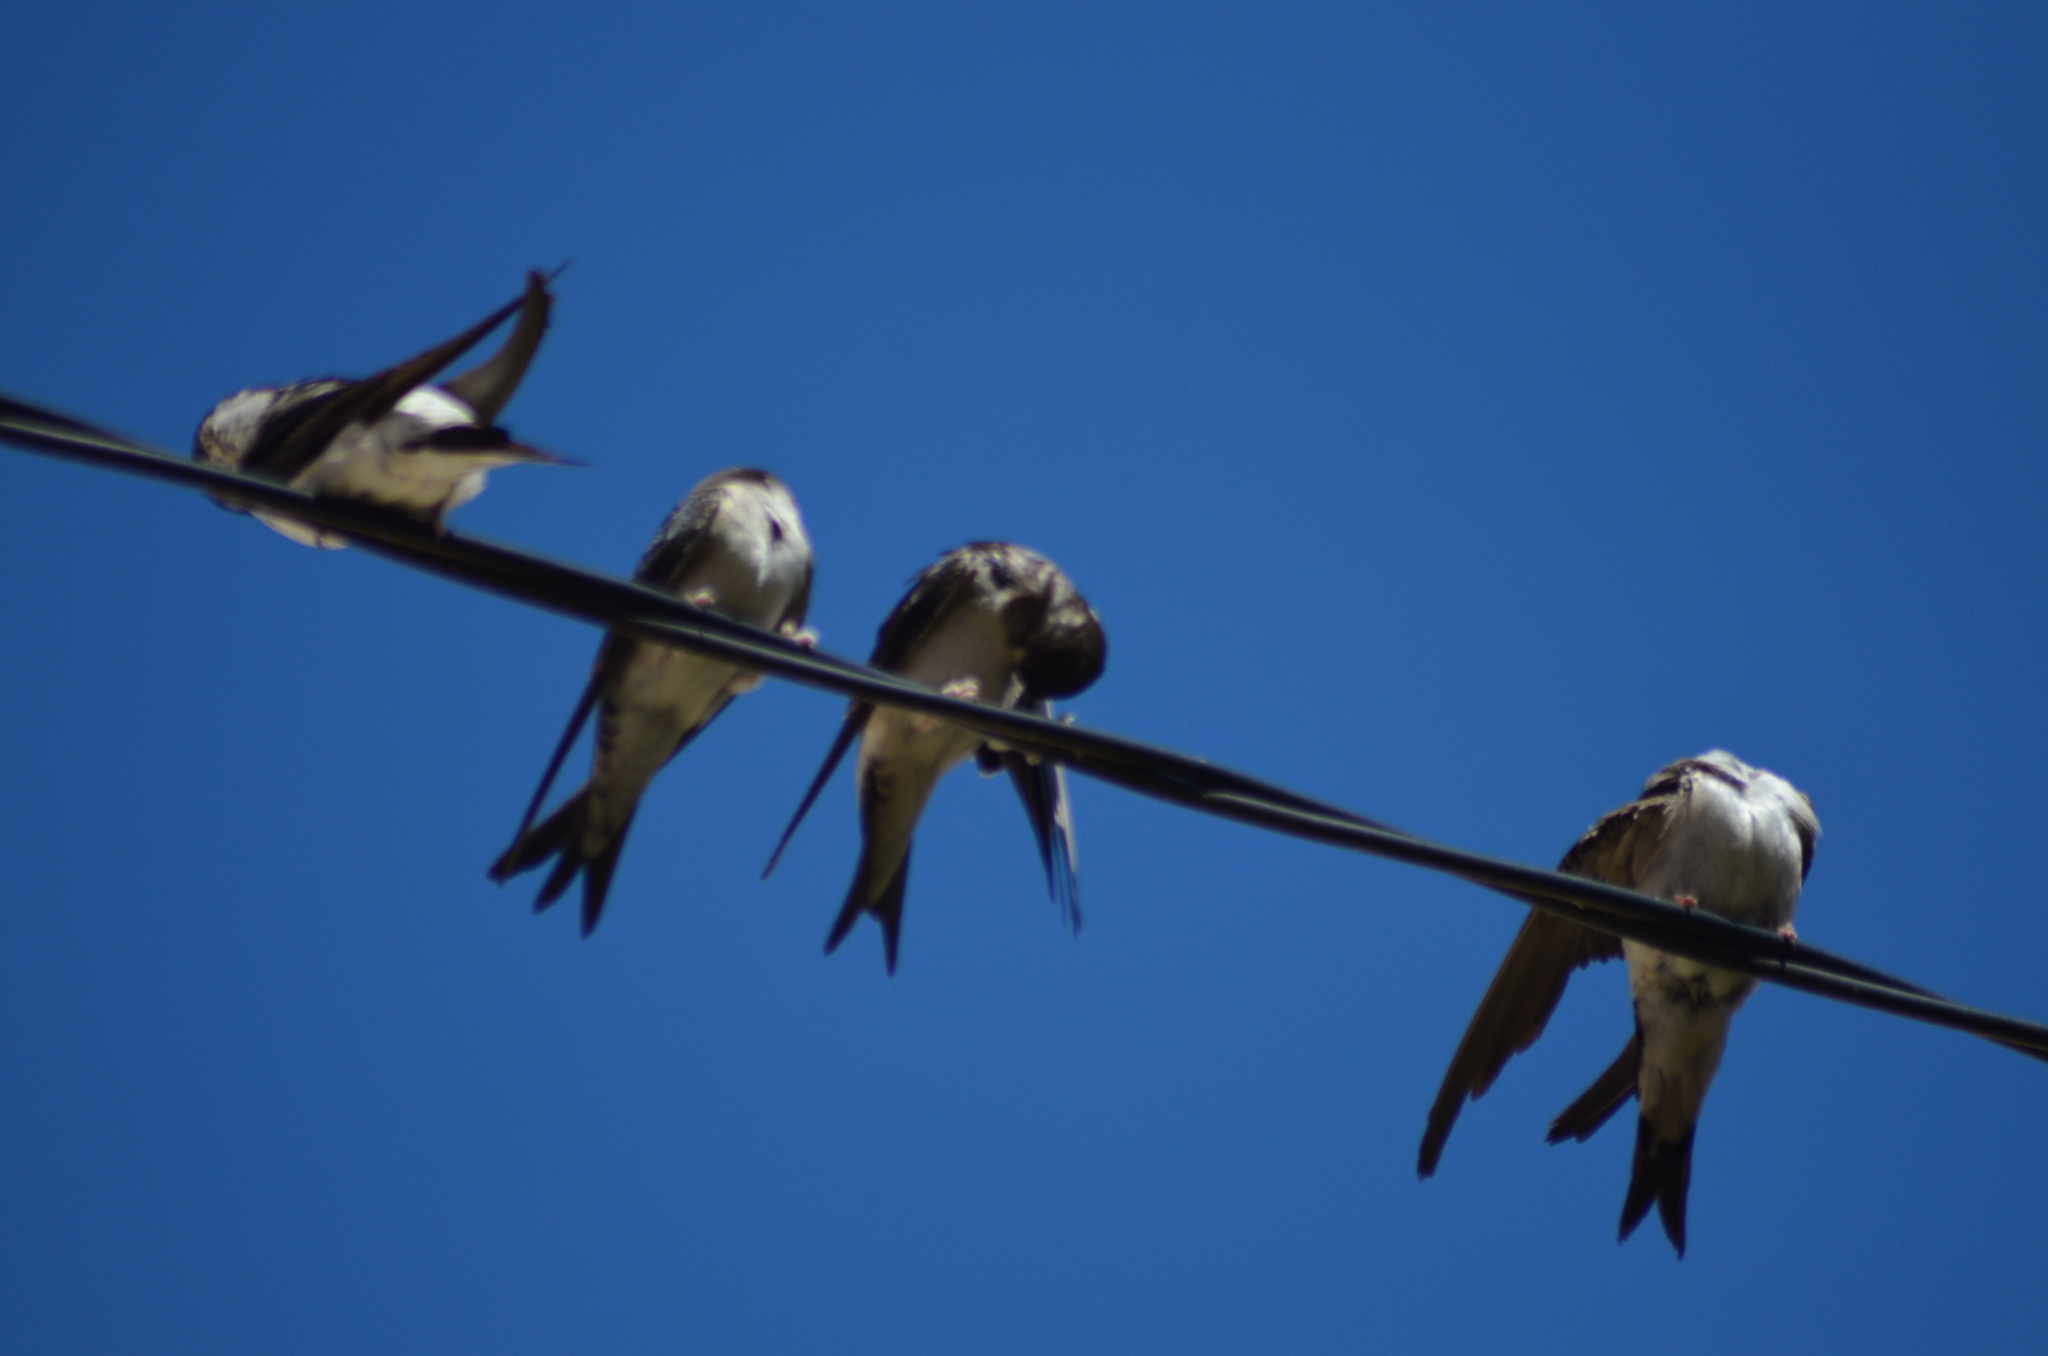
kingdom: Animalia
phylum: Chordata
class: Aves
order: Passeriformes
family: Hirundinidae
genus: Delichon
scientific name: Delichon urbicum
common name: Common house martin
